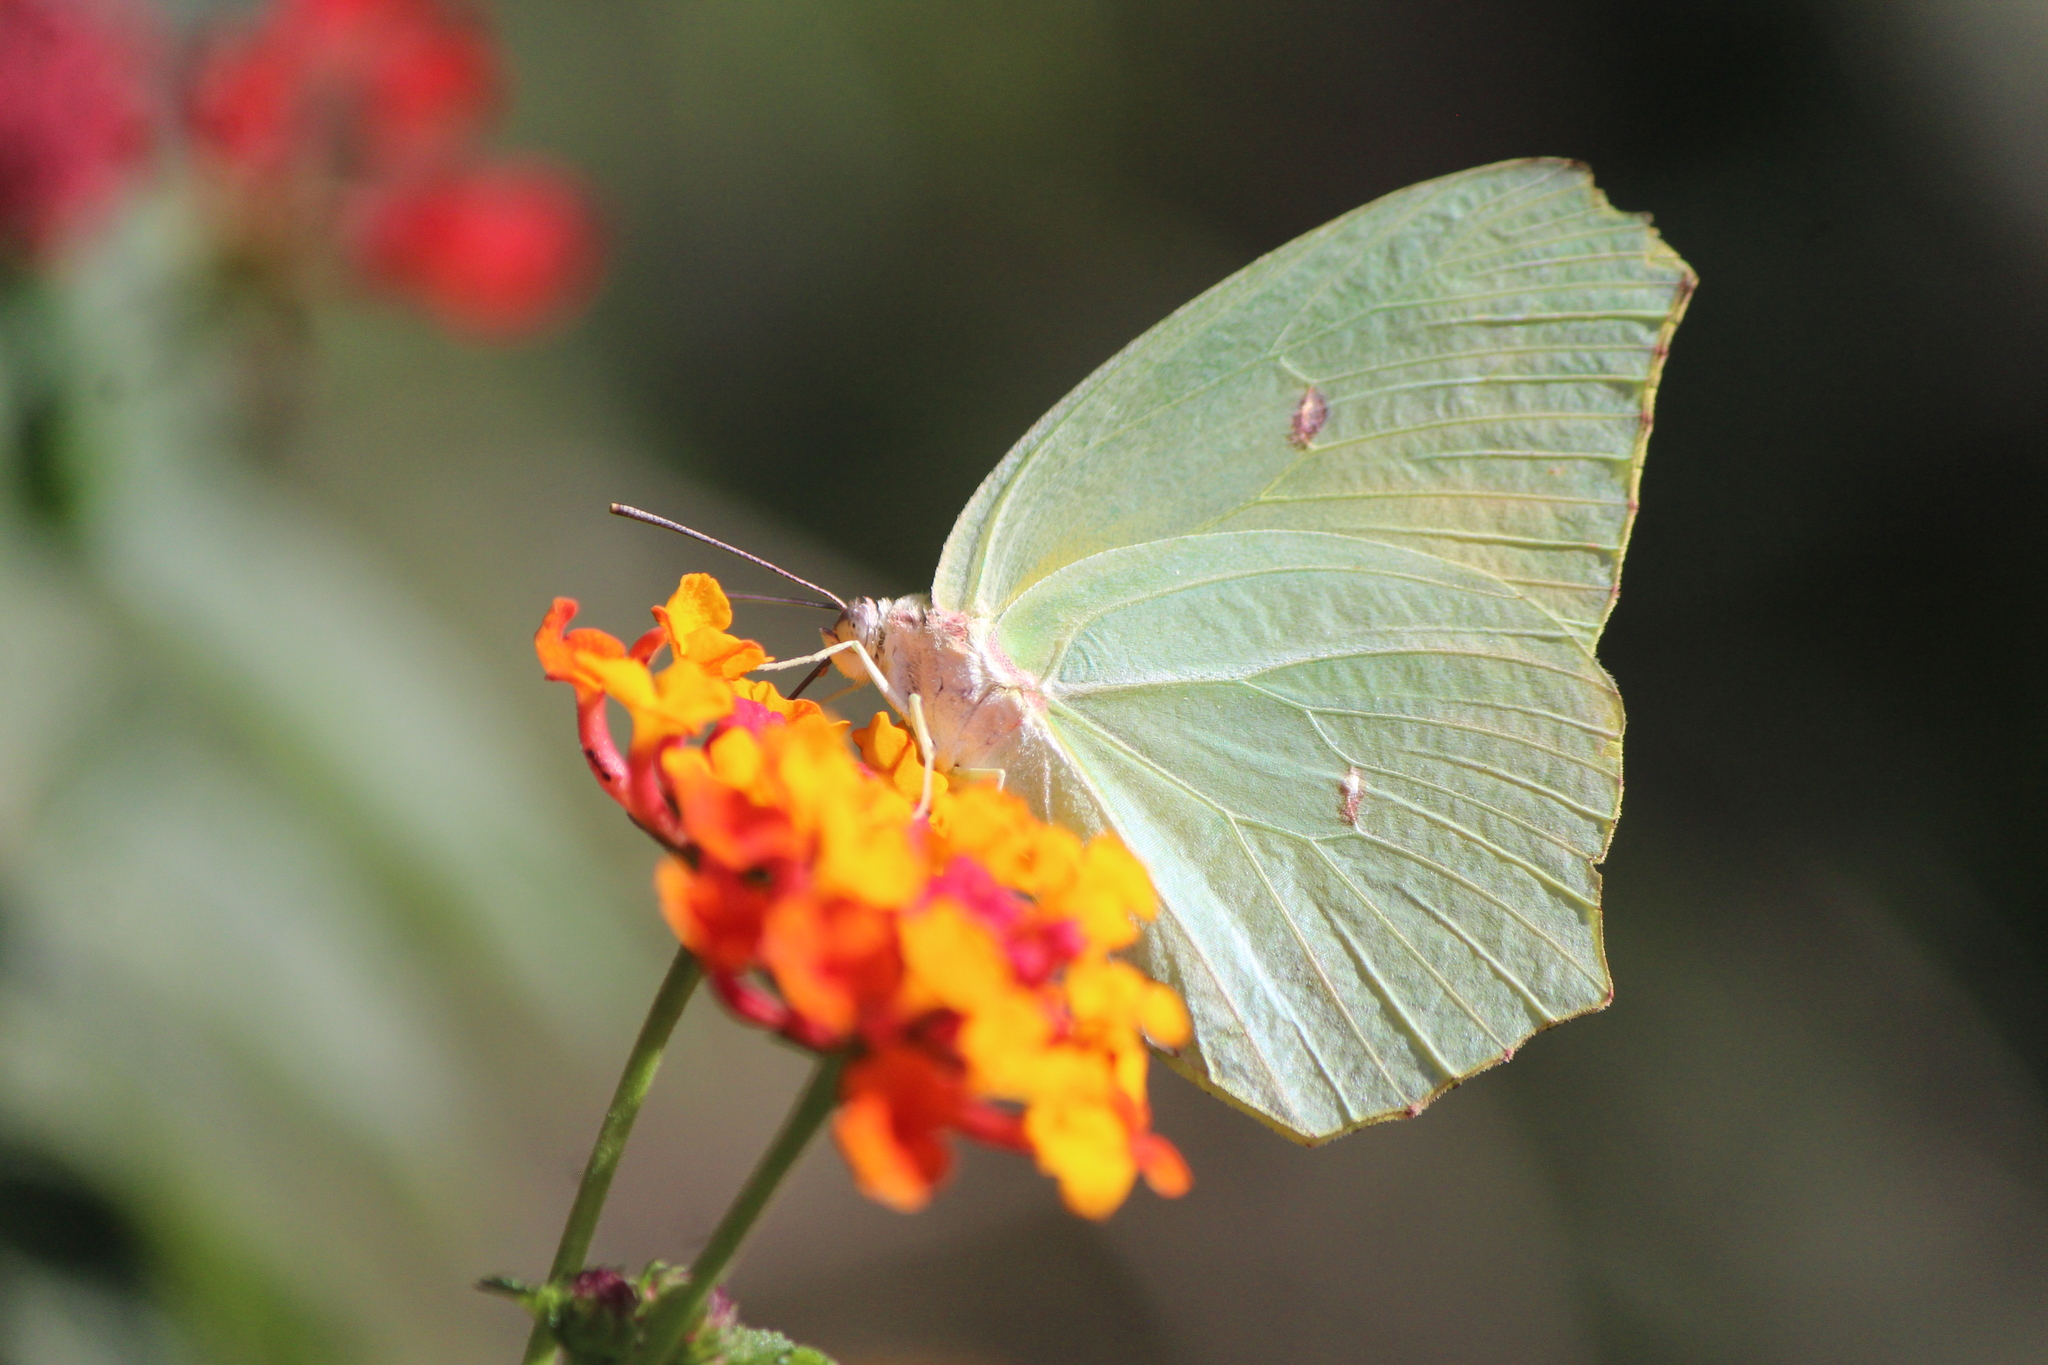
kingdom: Animalia
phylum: Arthropoda
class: Insecta
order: Lepidoptera
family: Pieridae
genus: Anteos
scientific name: Anteos maerula
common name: Angled sulphur
